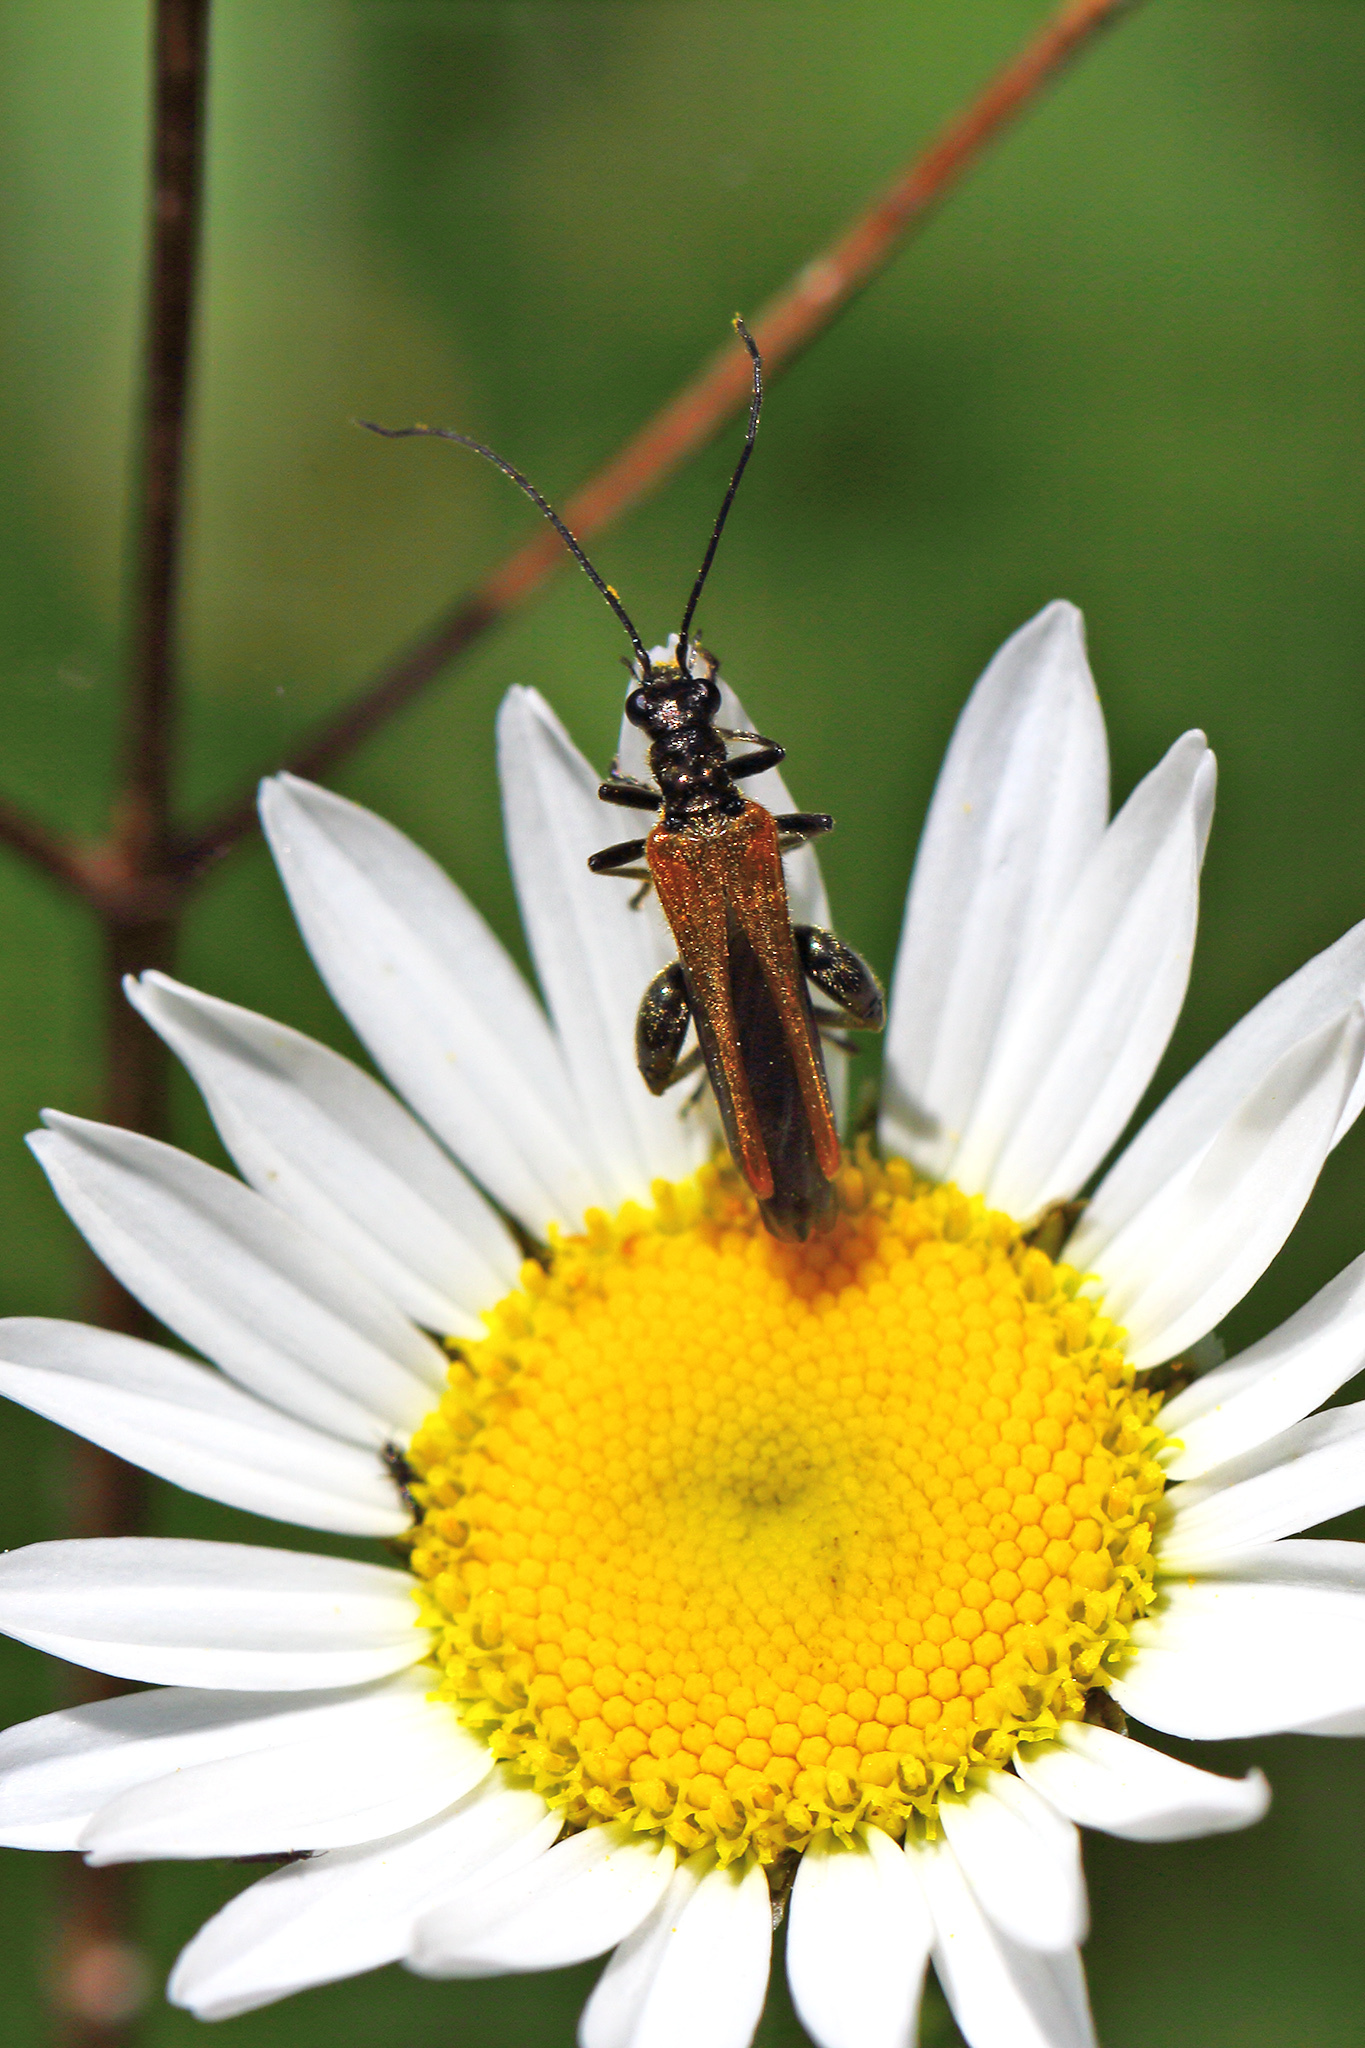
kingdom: Animalia
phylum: Arthropoda
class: Insecta
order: Coleoptera
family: Oedemeridae
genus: Oedemera
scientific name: Oedemera femorata
